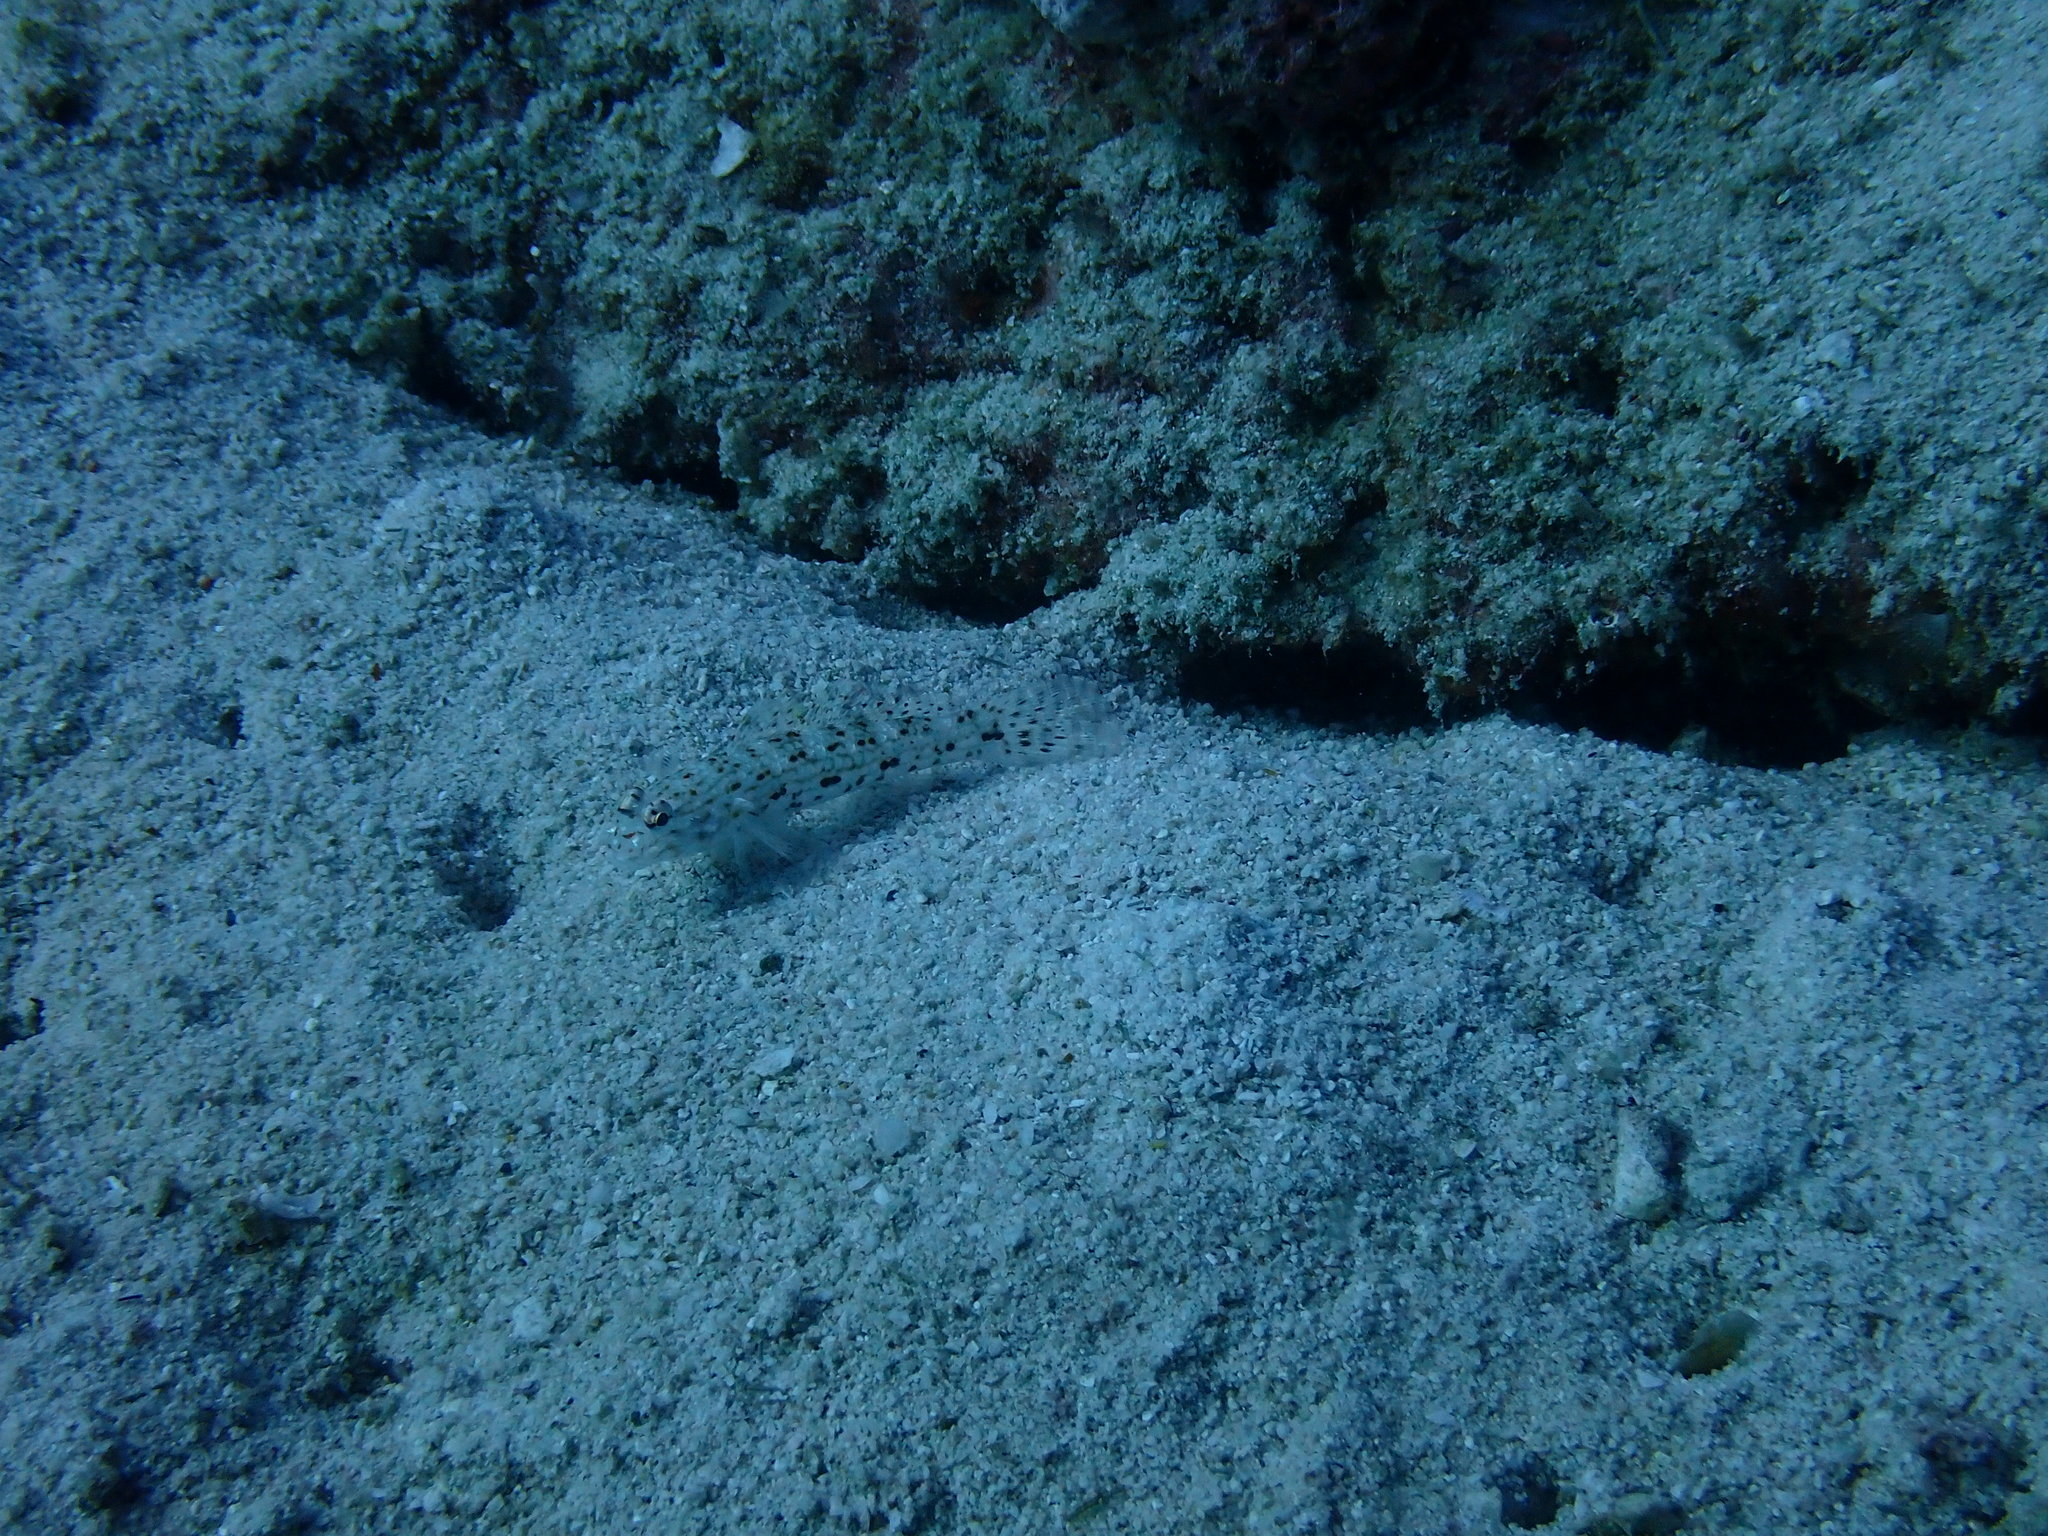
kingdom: Animalia
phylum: Chordata
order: Perciformes
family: Gobiidae
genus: Istigobius
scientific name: Istigobius decoratus
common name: Decorated goby
